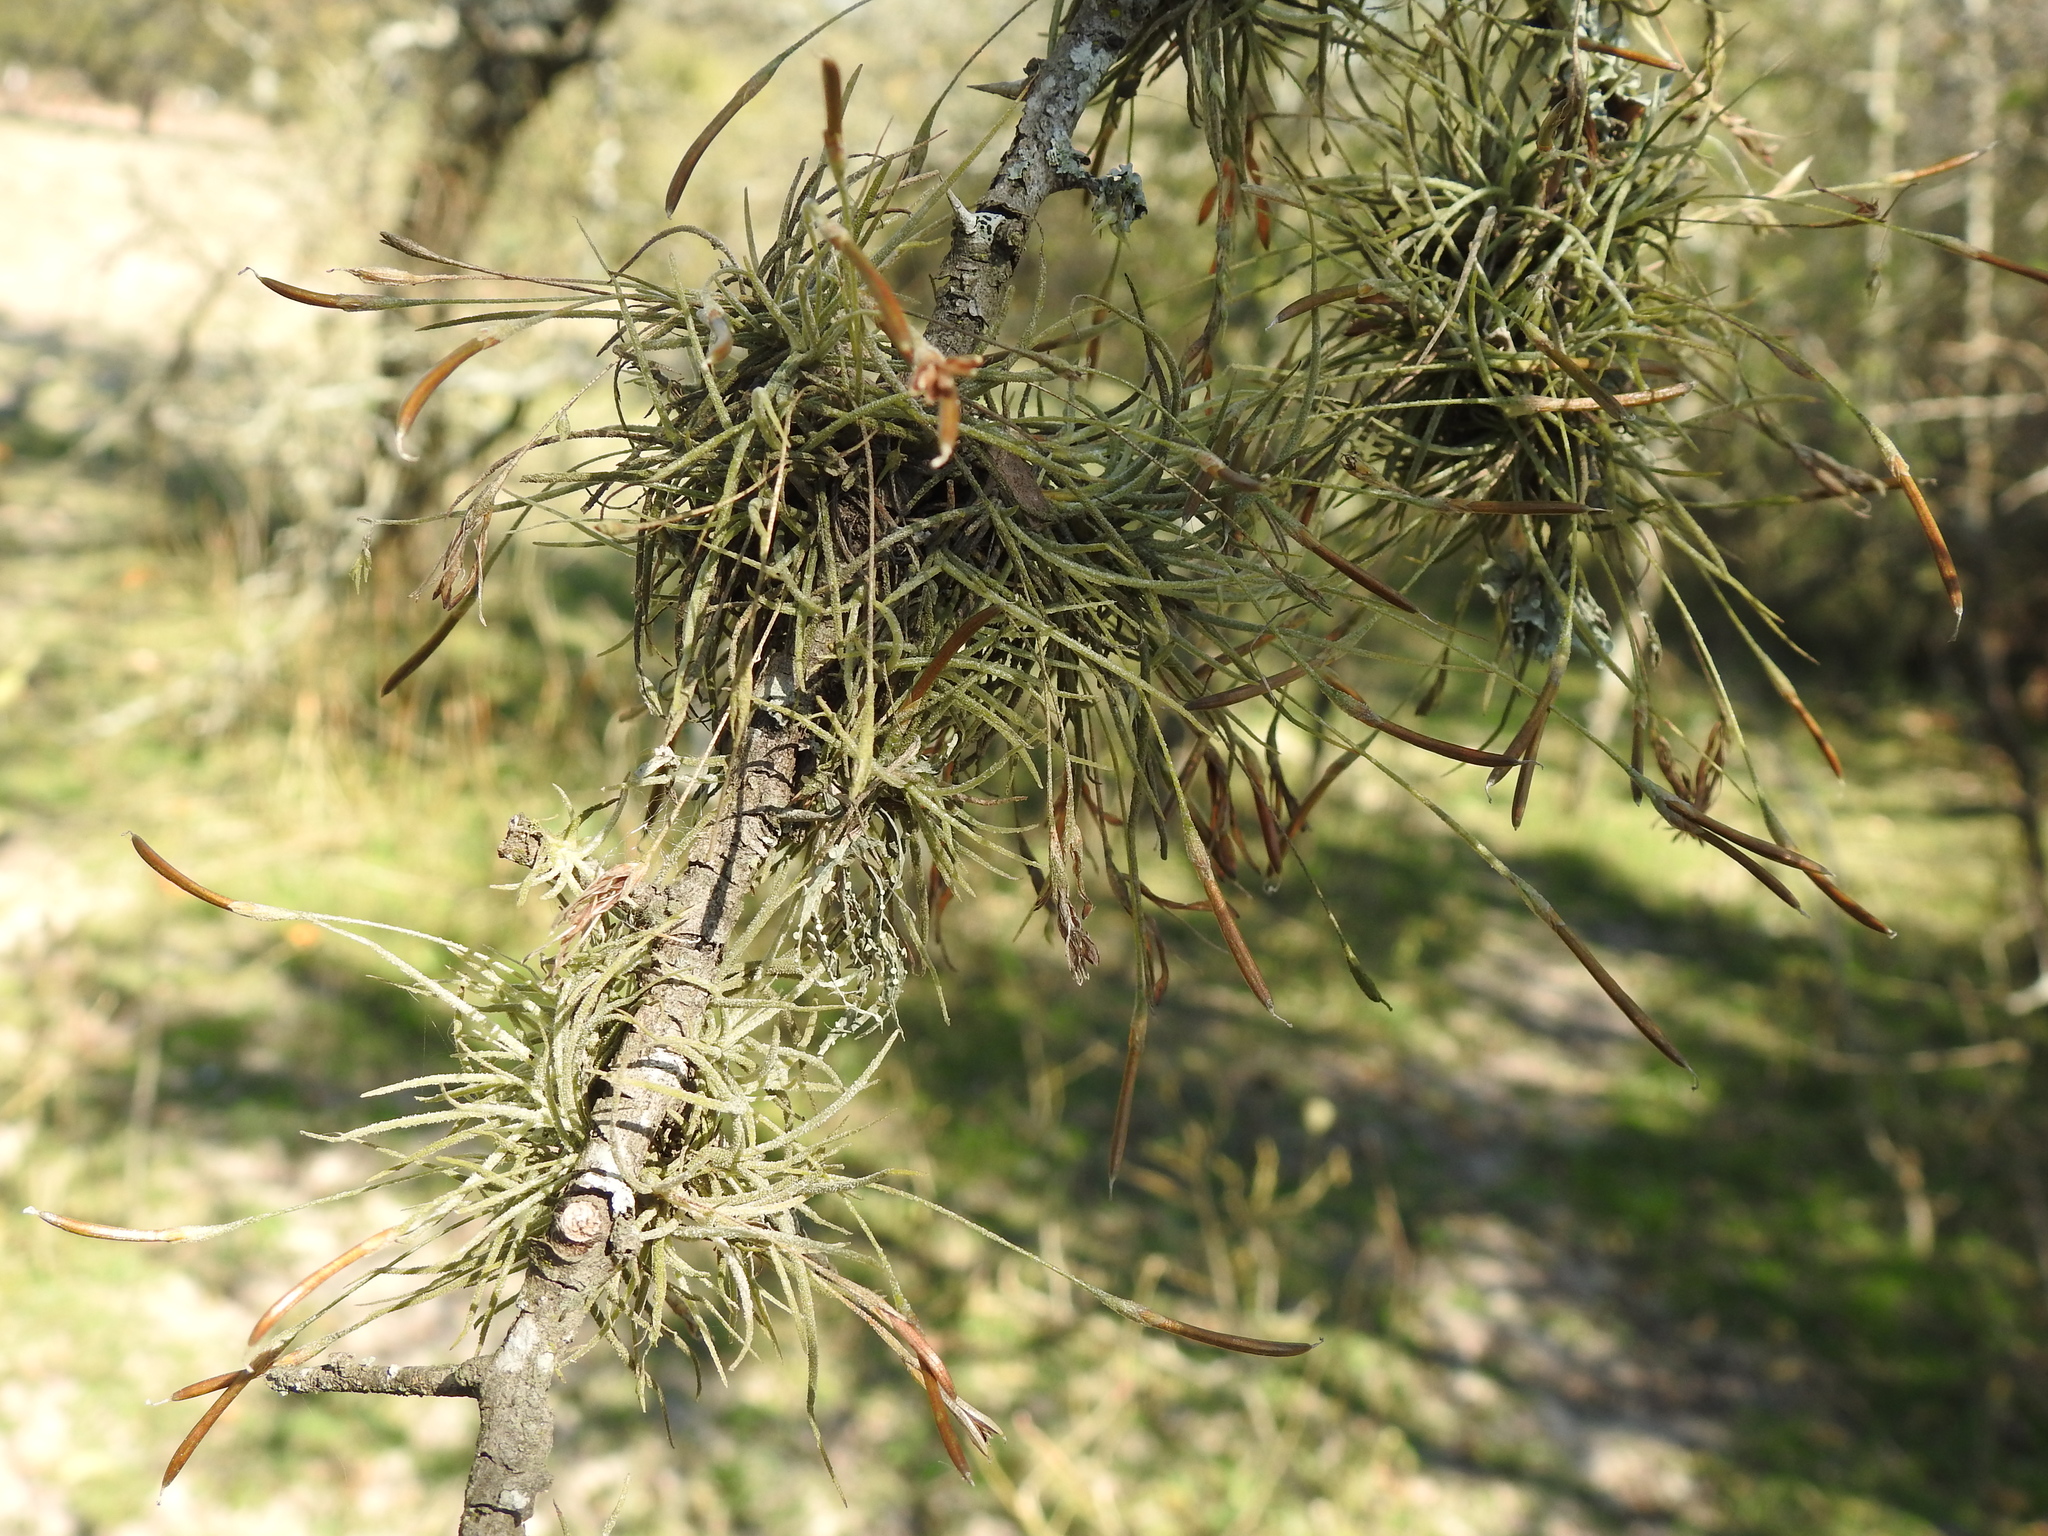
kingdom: Plantae
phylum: Tracheophyta
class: Liliopsida
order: Poales
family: Bromeliaceae
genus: Tillandsia
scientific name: Tillandsia recurvata
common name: Small ballmoss
